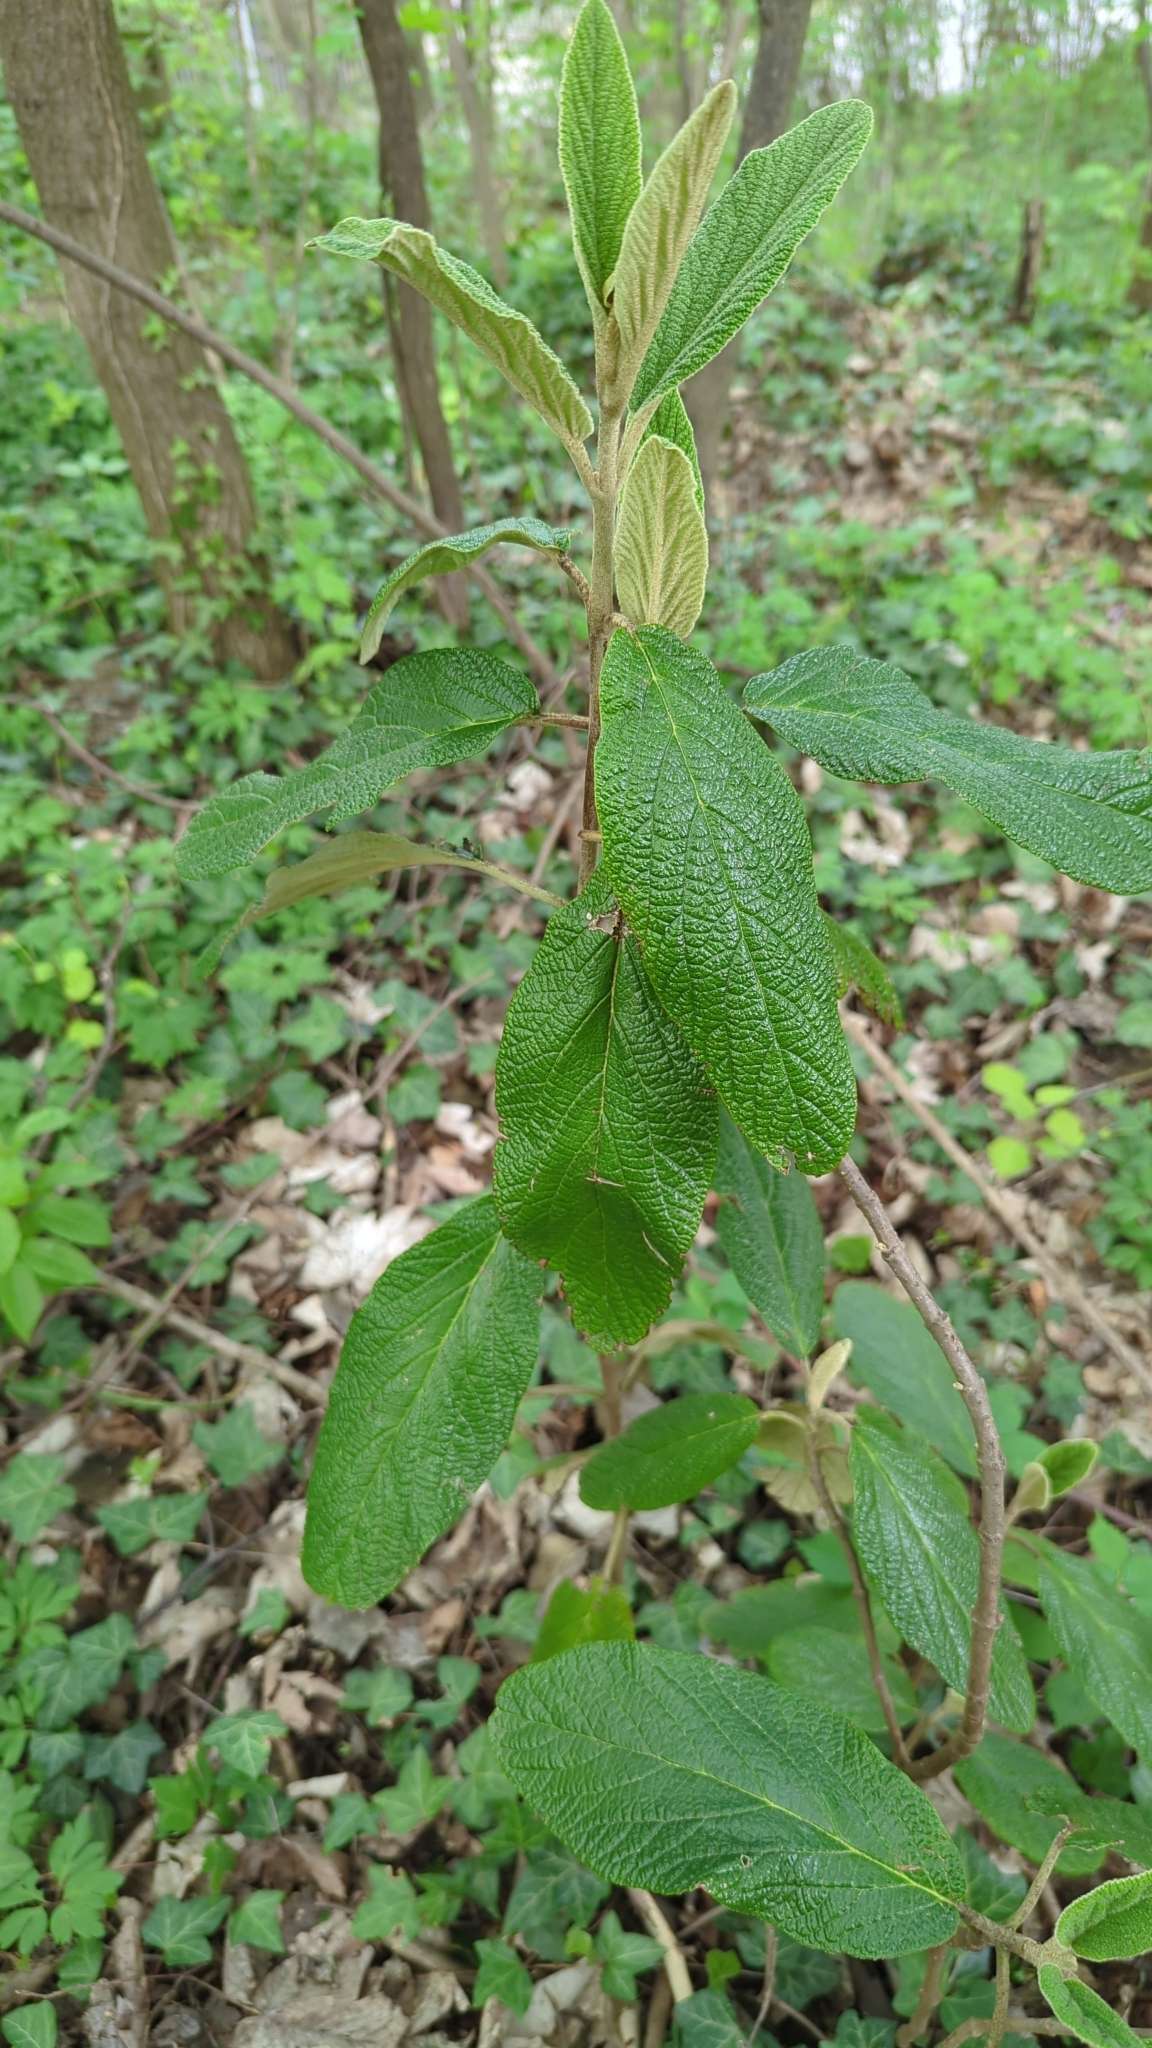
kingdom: Plantae
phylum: Tracheophyta
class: Magnoliopsida
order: Dipsacales
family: Viburnaceae
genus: Viburnum
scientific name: Viburnum rhytidophyllum
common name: Wrinkled viburnum
